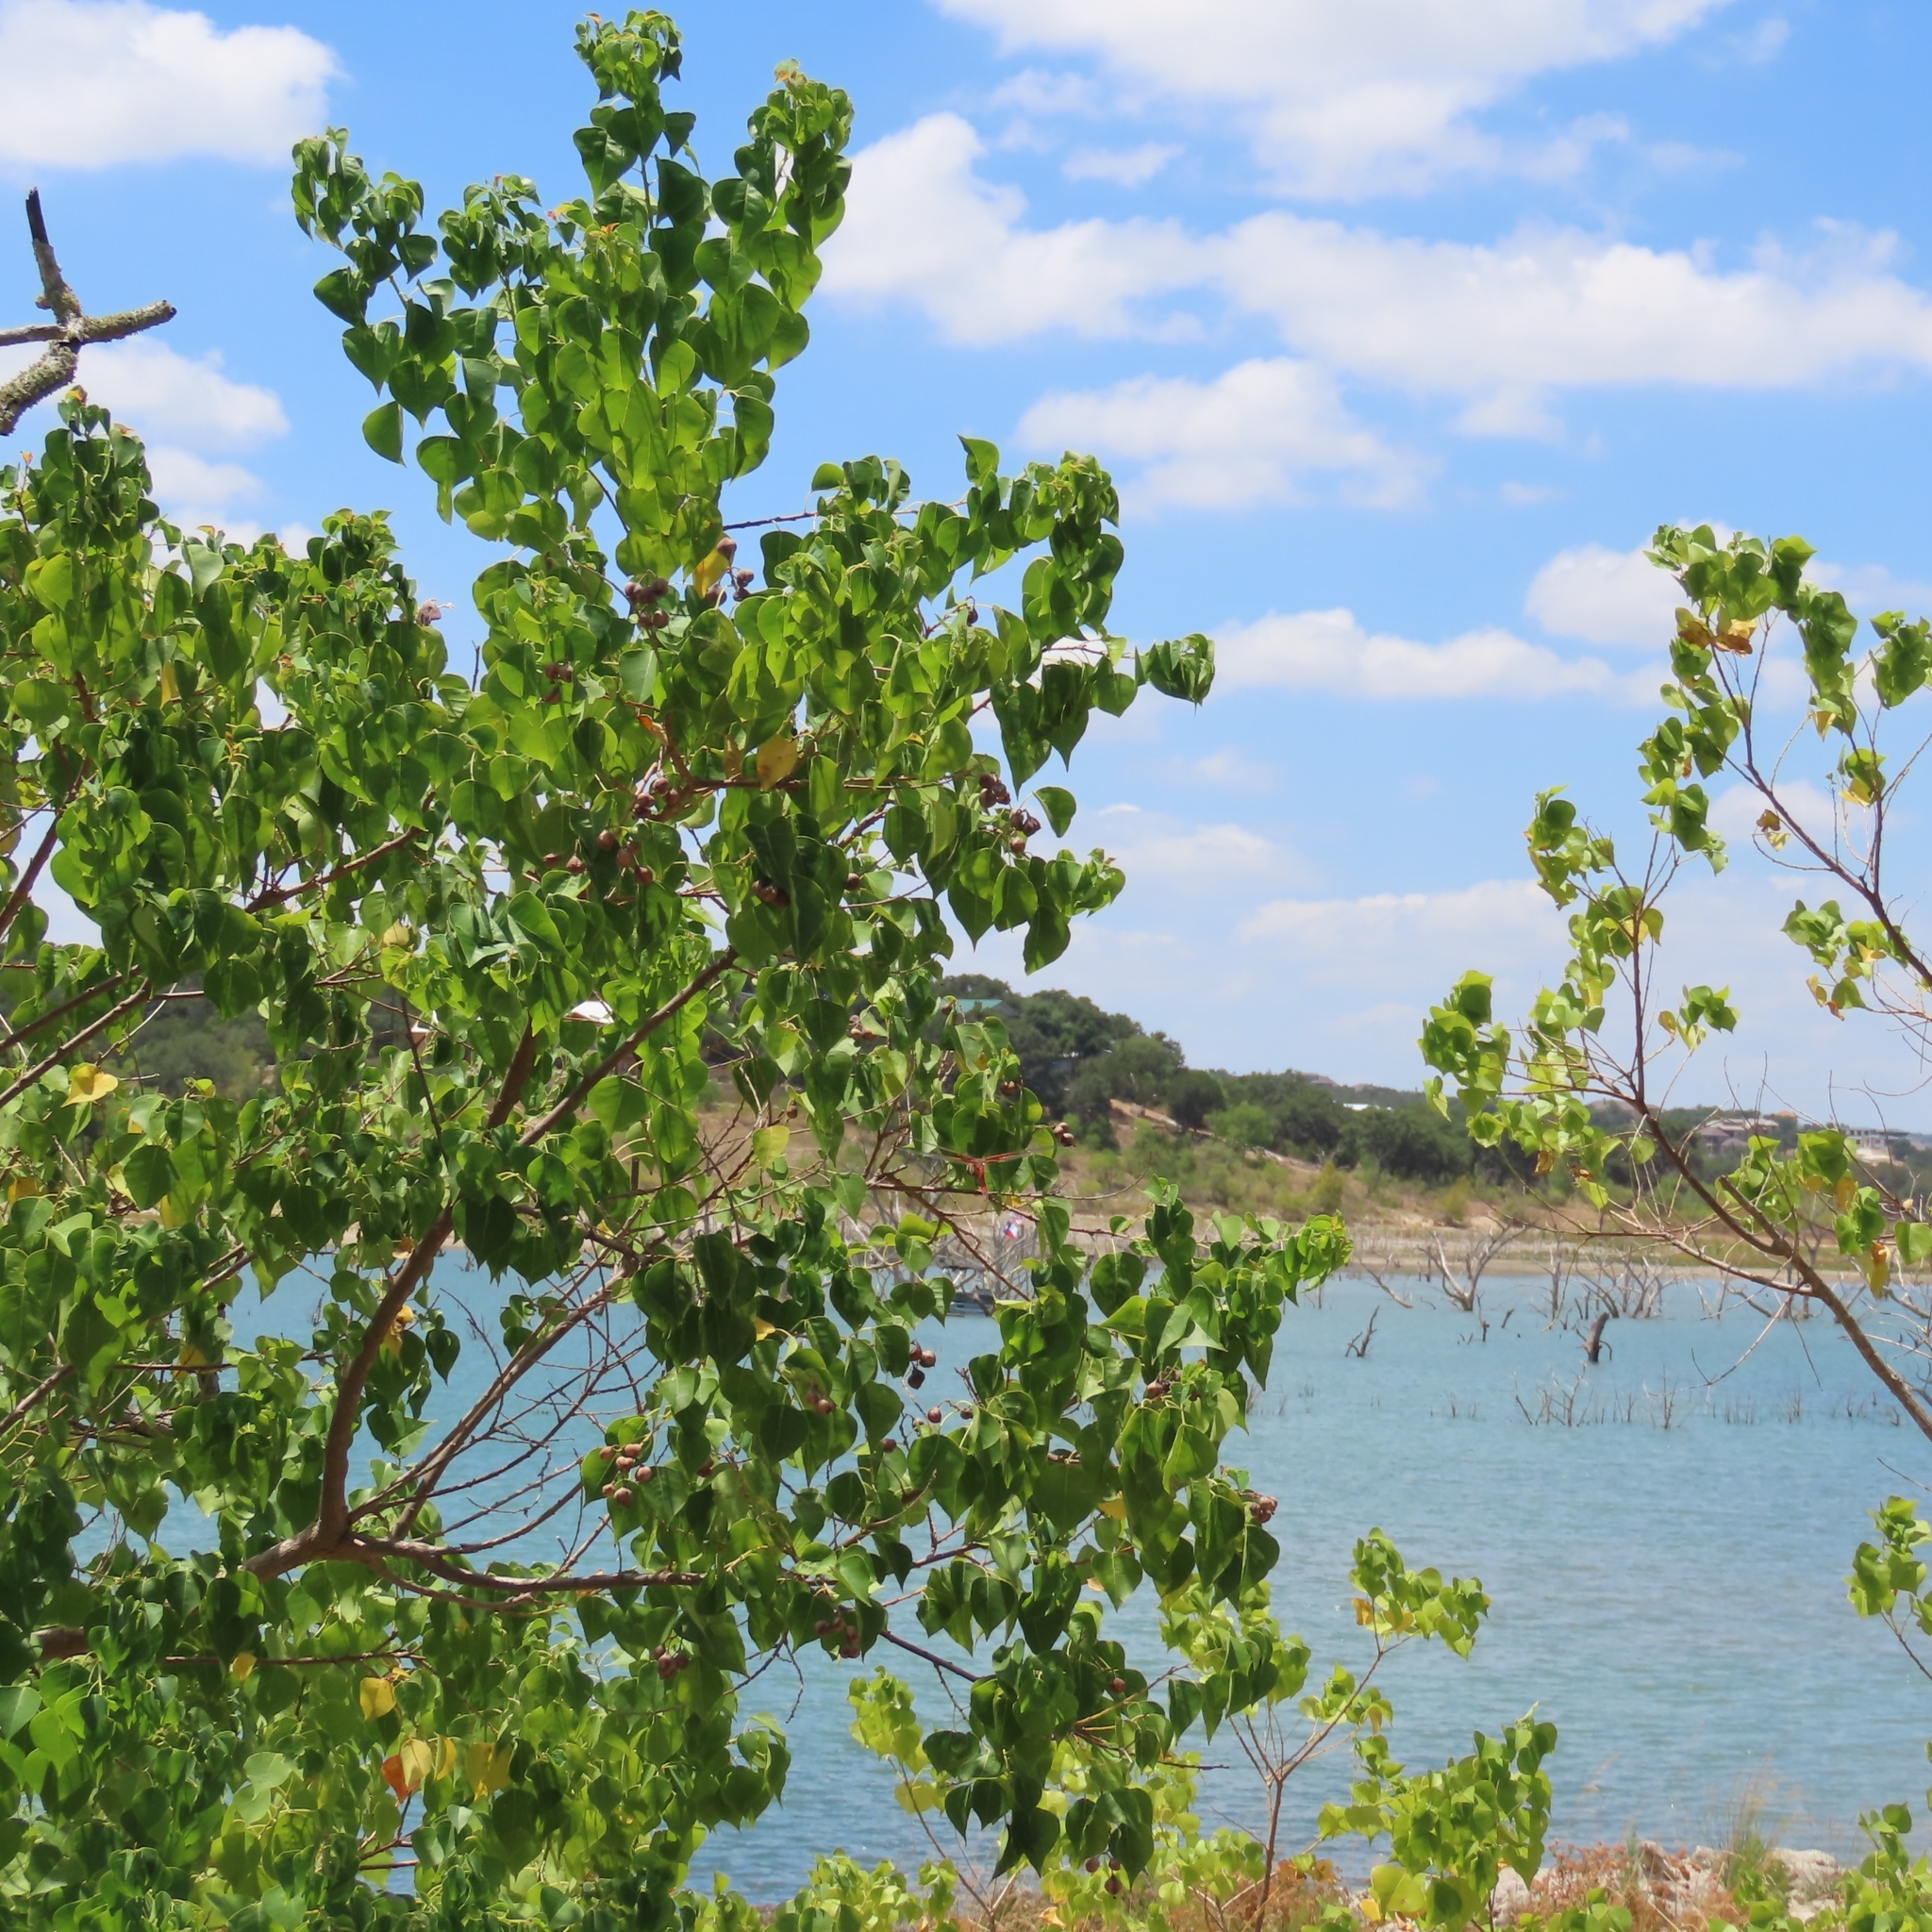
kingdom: Plantae
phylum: Tracheophyta
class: Magnoliopsida
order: Malpighiales
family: Euphorbiaceae
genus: Triadica
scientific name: Triadica sebifera
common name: Chinese tallow
